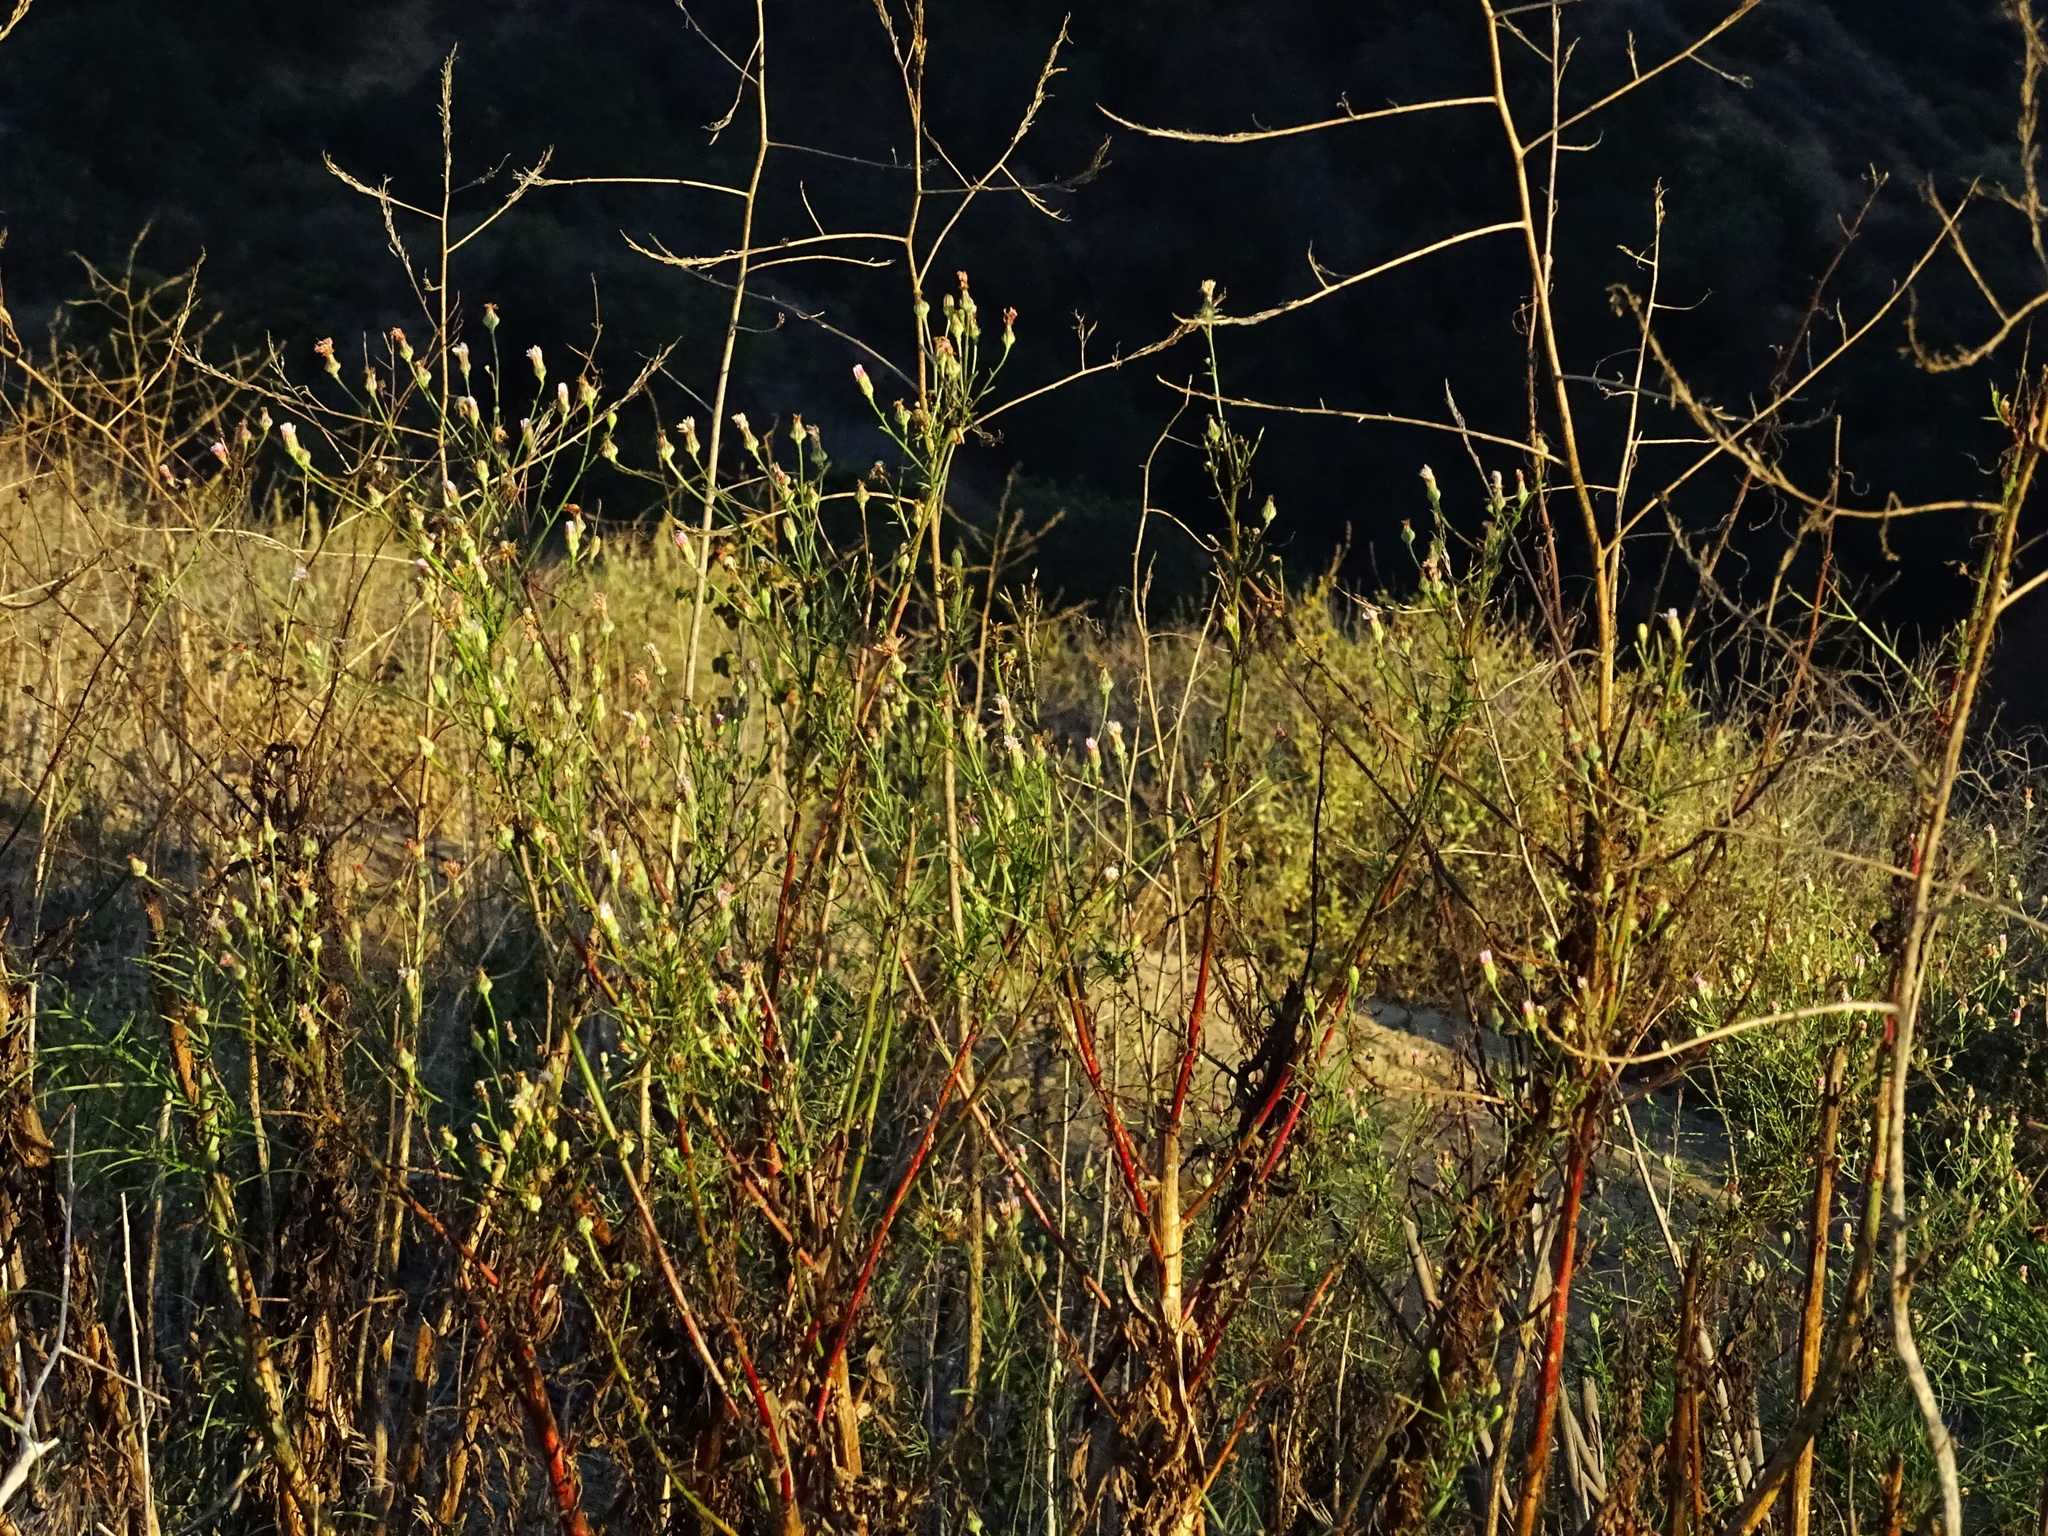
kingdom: Plantae
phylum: Tracheophyta
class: Magnoliopsida
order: Asterales
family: Asteraceae
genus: Malacothrix
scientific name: Malacothrix saxatilis
